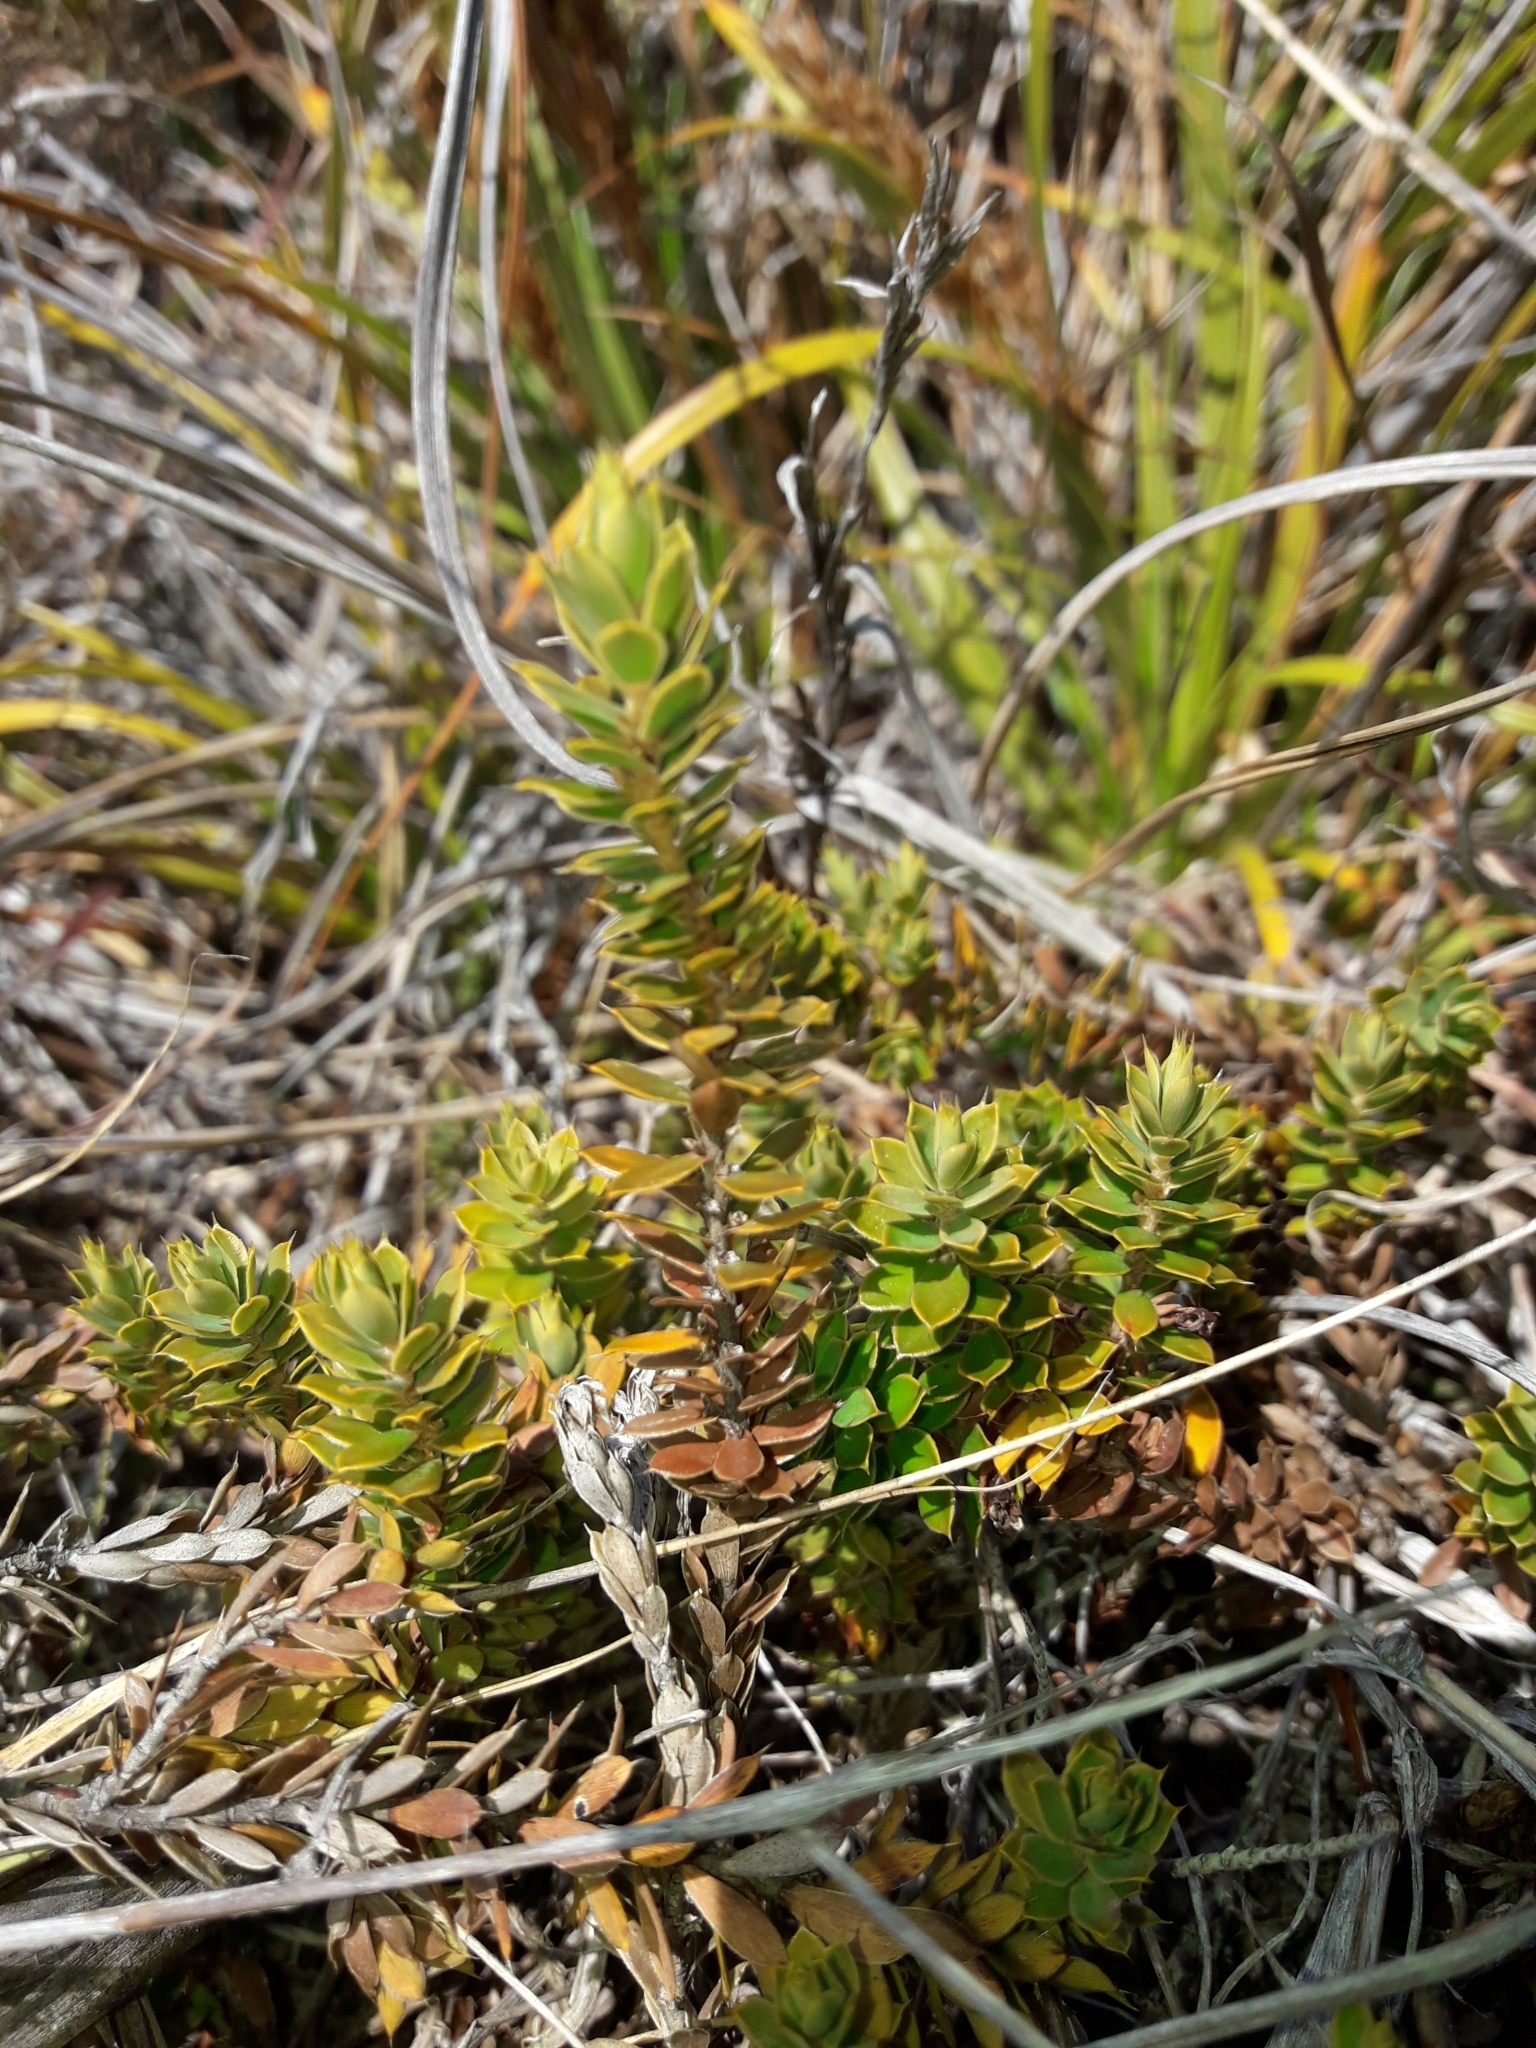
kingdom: Plantae
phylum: Tracheophyta
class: Magnoliopsida
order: Ericales
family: Ericaceae
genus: Styphelia
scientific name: Styphelia nesophila
